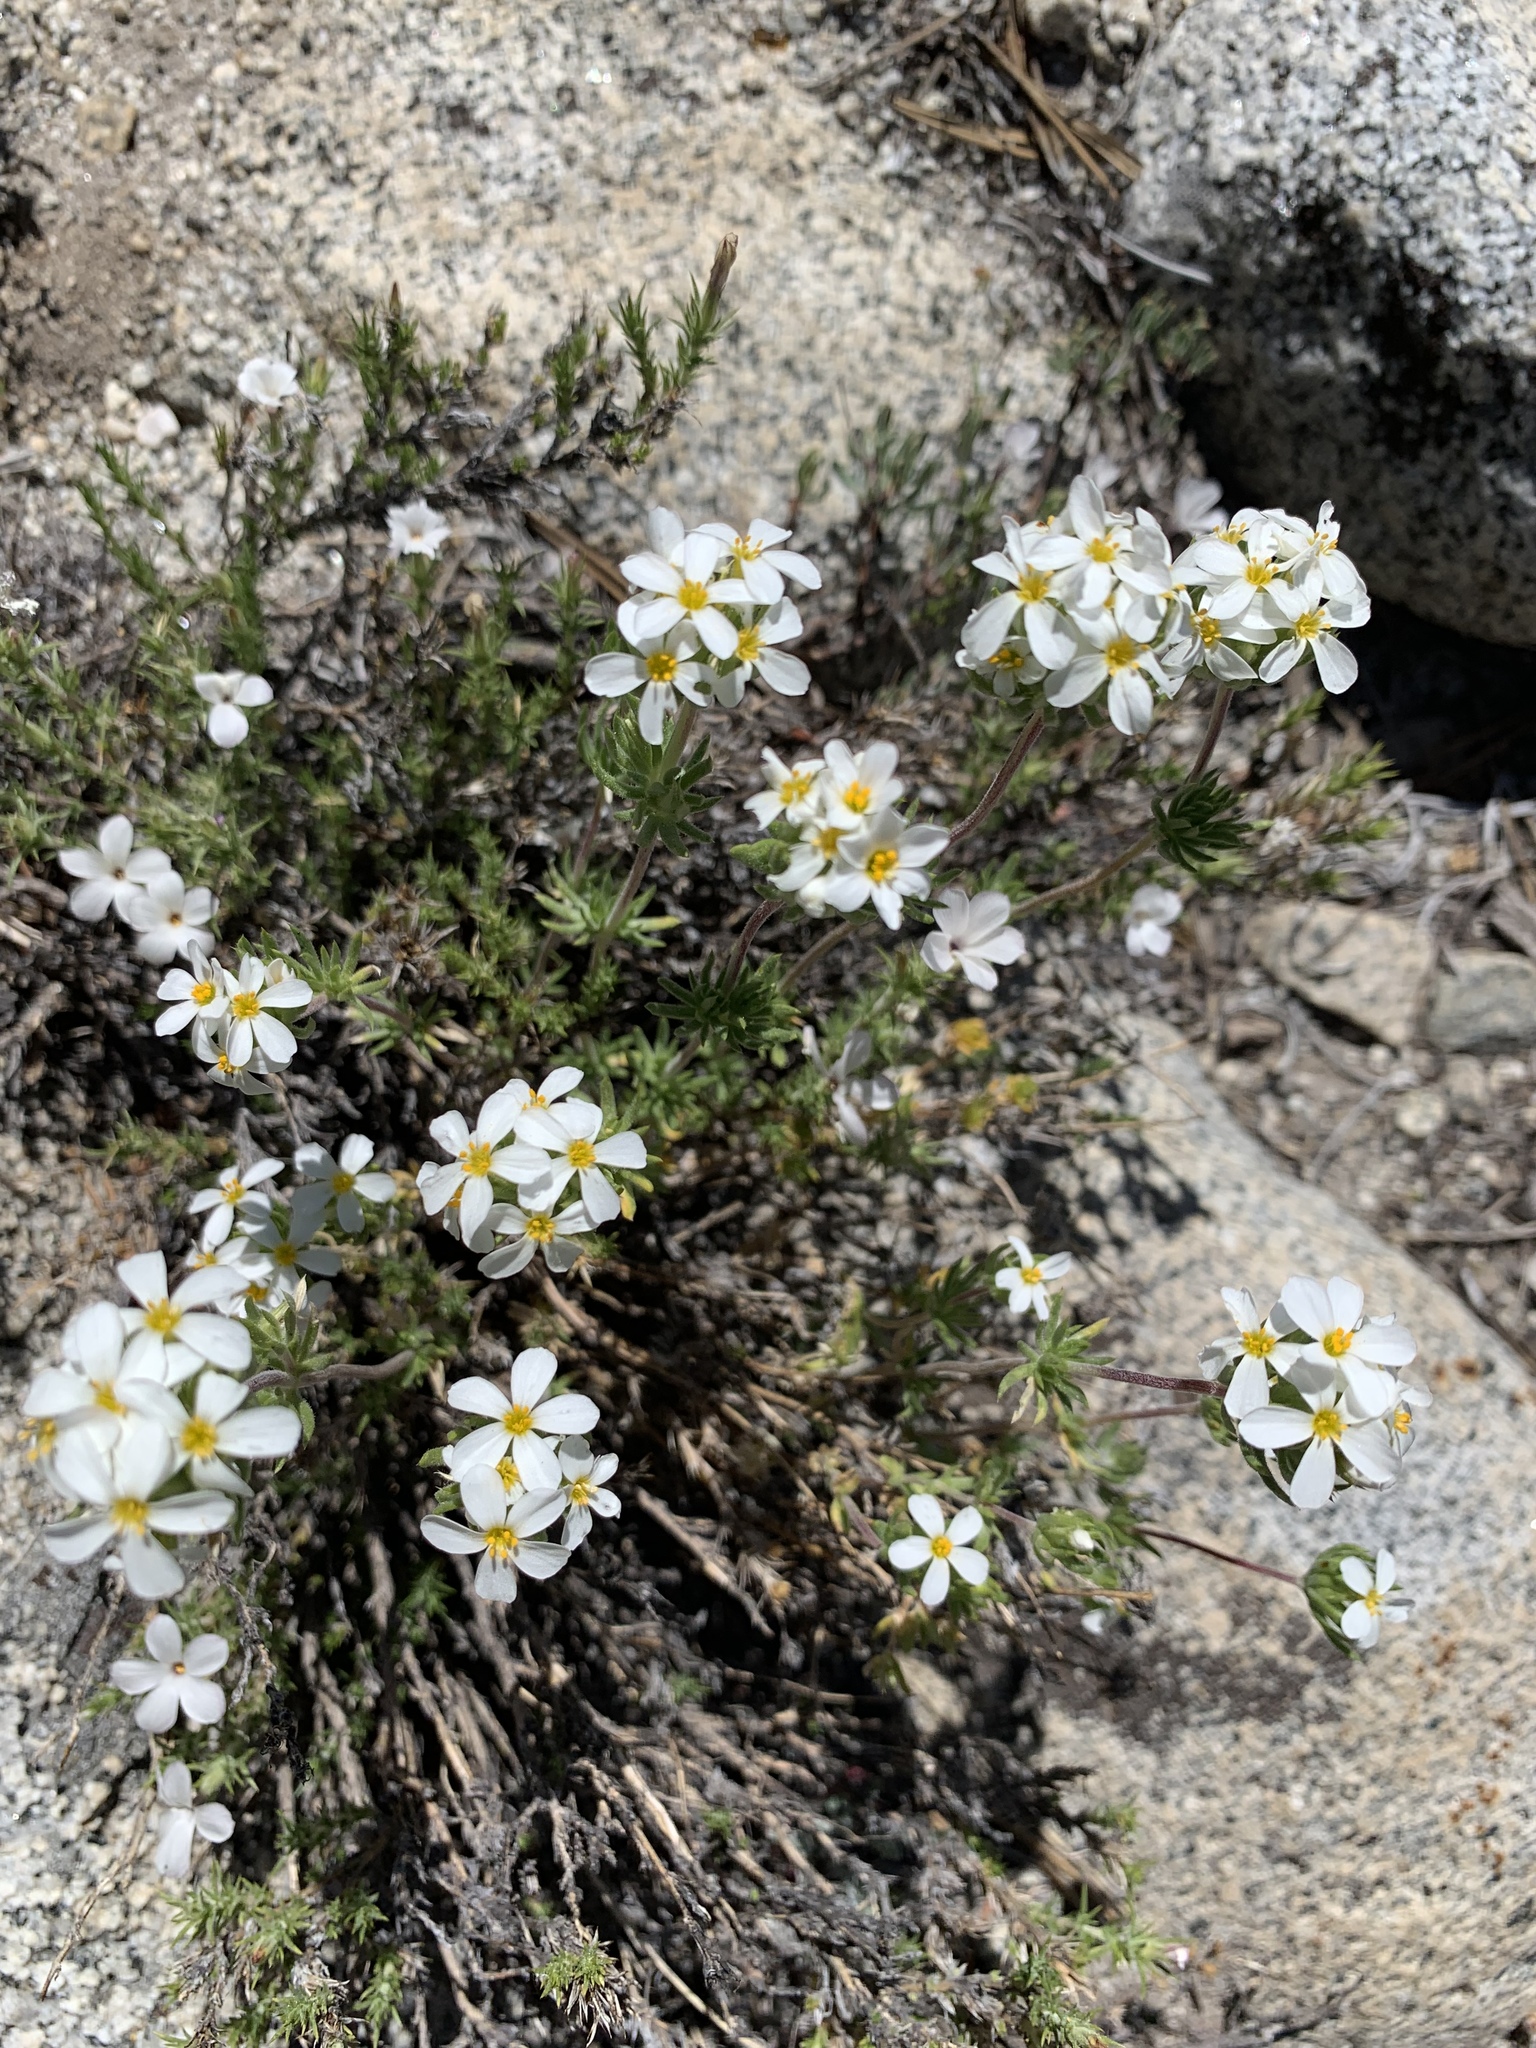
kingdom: Plantae
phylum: Tracheophyta
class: Magnoliopsida
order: Ericales
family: Polemoniaceae
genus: Leptosiphon
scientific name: Leptosiphon nuttallii
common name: Nuttall's linanthus
